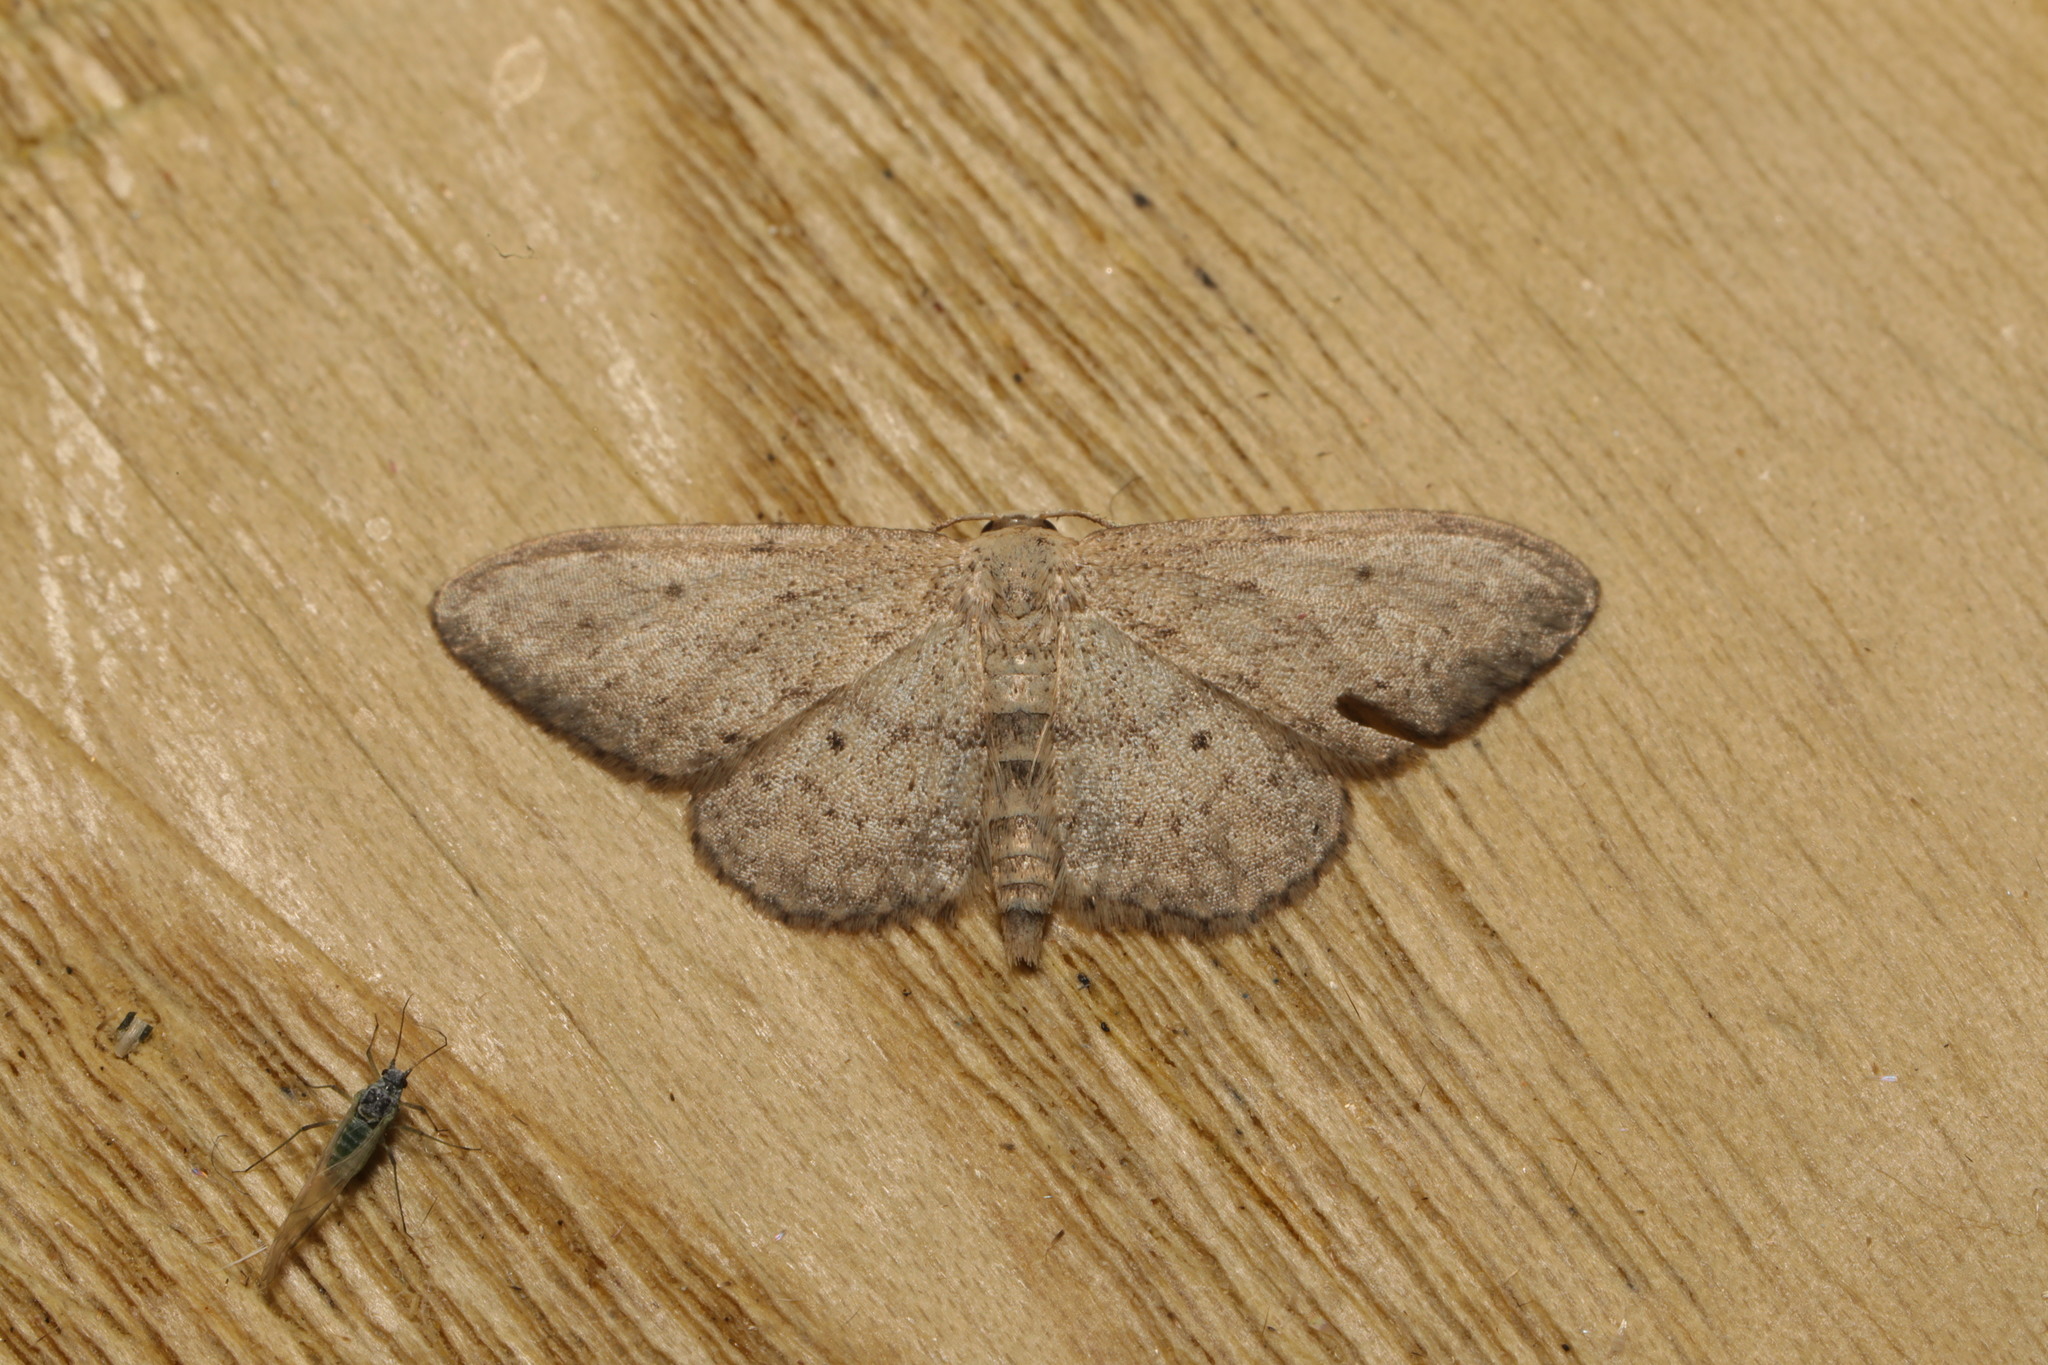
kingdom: Animalia
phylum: Arthropoda
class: Insecta
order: Lepidoptera
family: Geometridae
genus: Idaea
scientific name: Idaea seriata
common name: Small dusty wave
